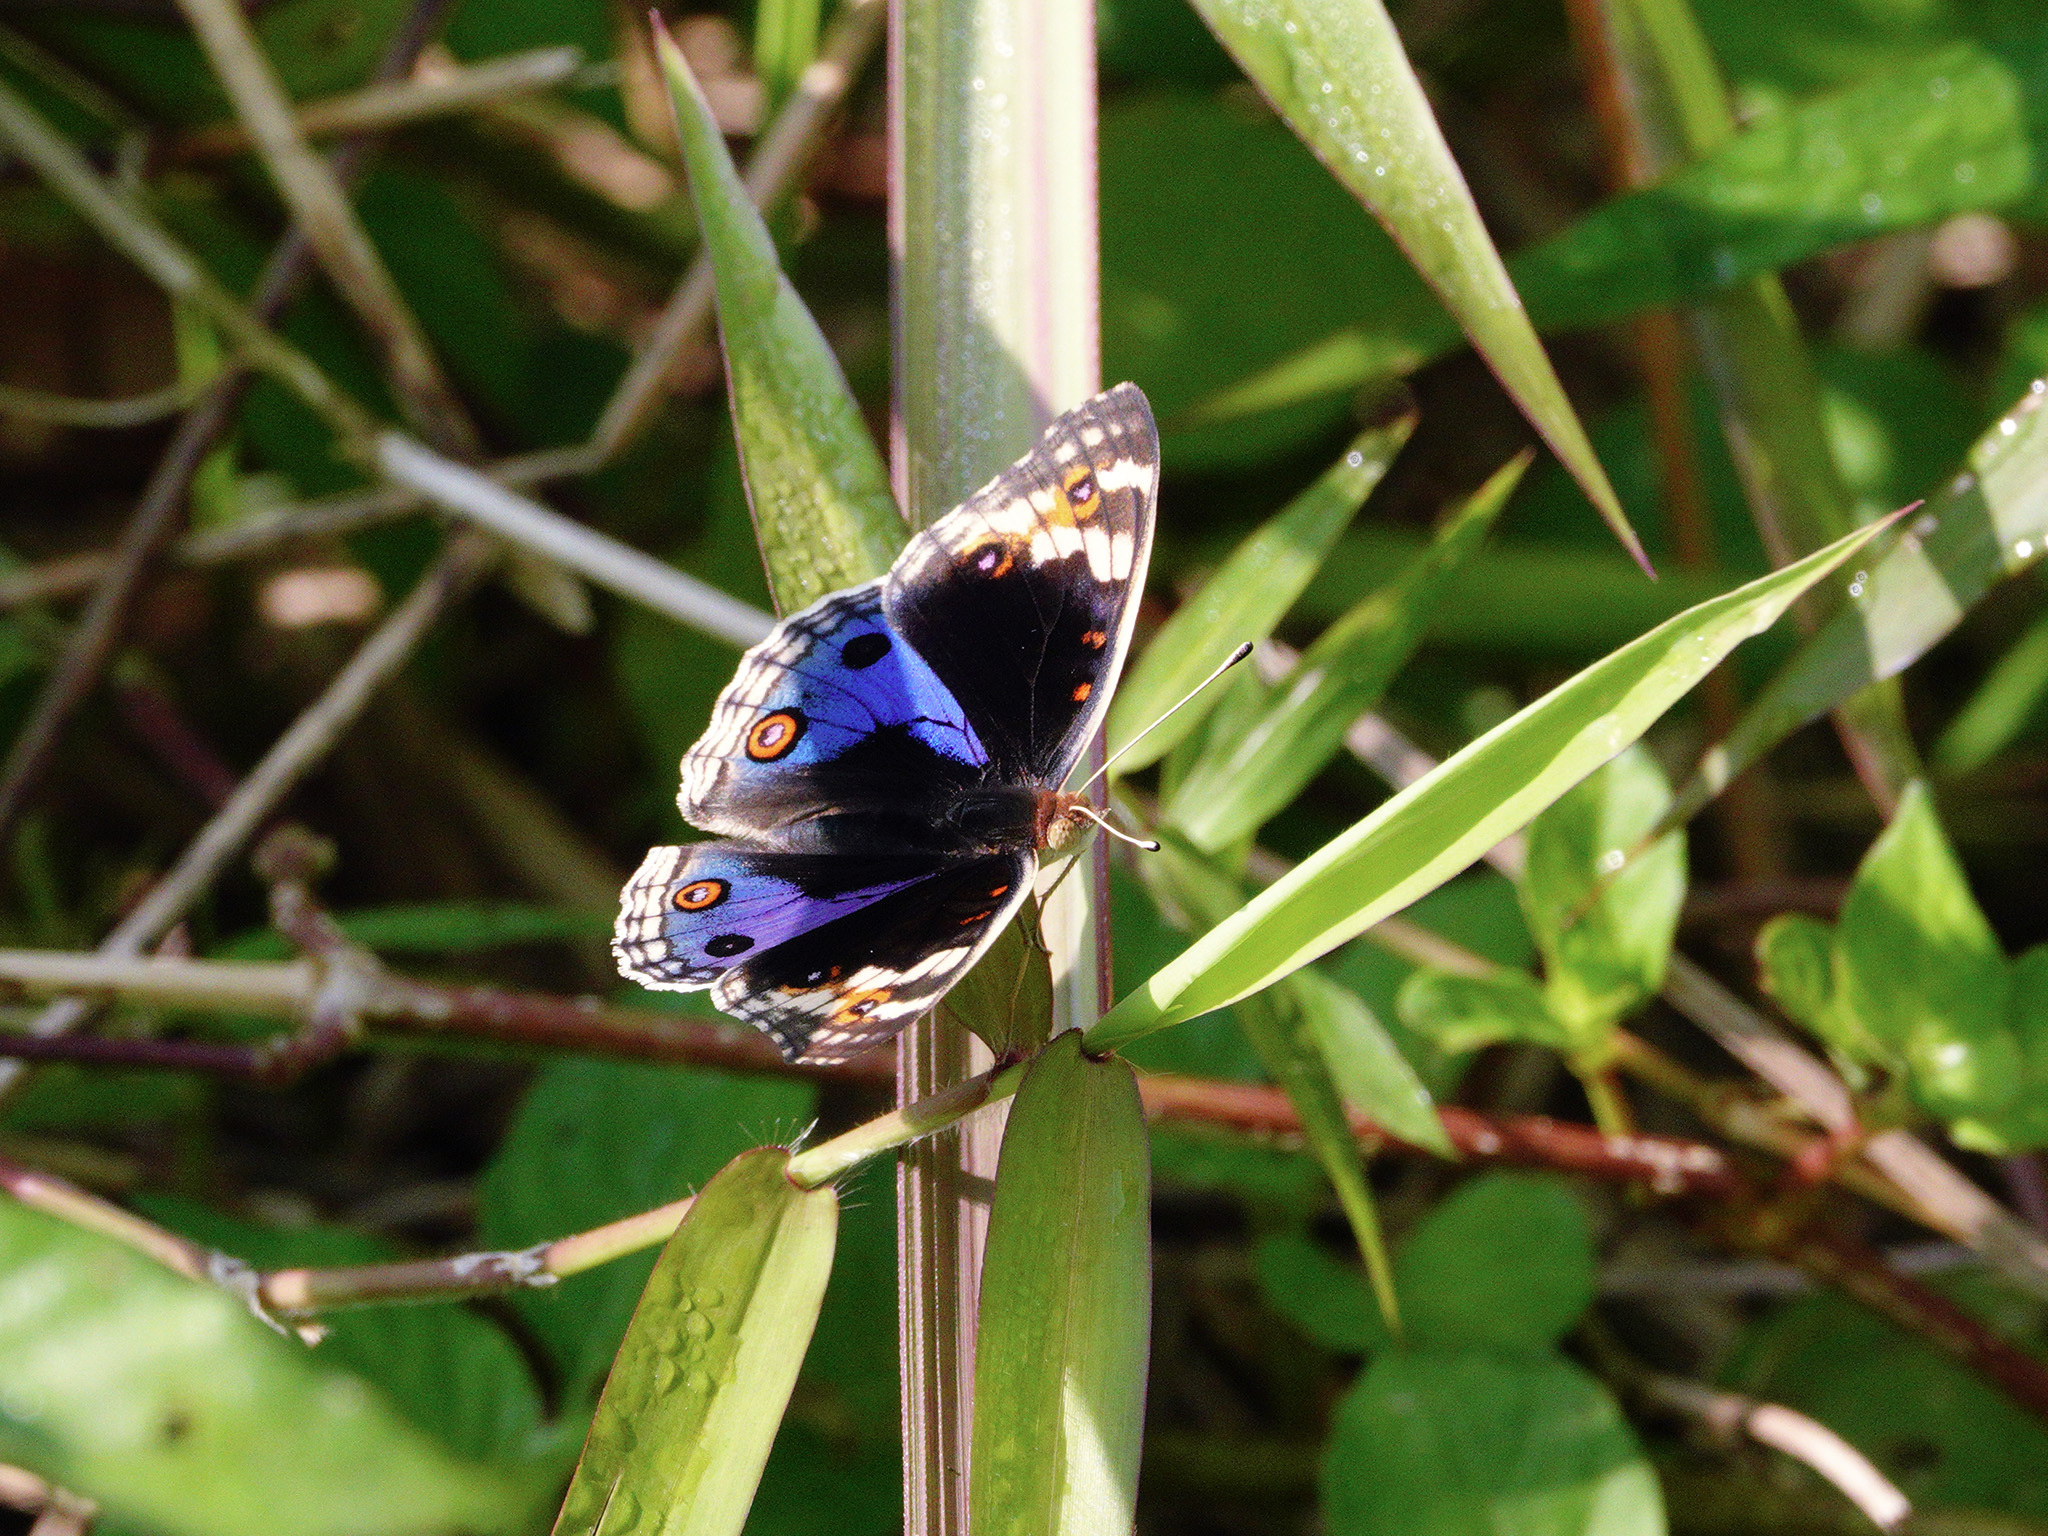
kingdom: Animalia
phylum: Arthropoda
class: Insecta
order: Lepidoptera
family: Nymphalidae
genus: Junonia
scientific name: Junonia orithya
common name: Blue pansy
